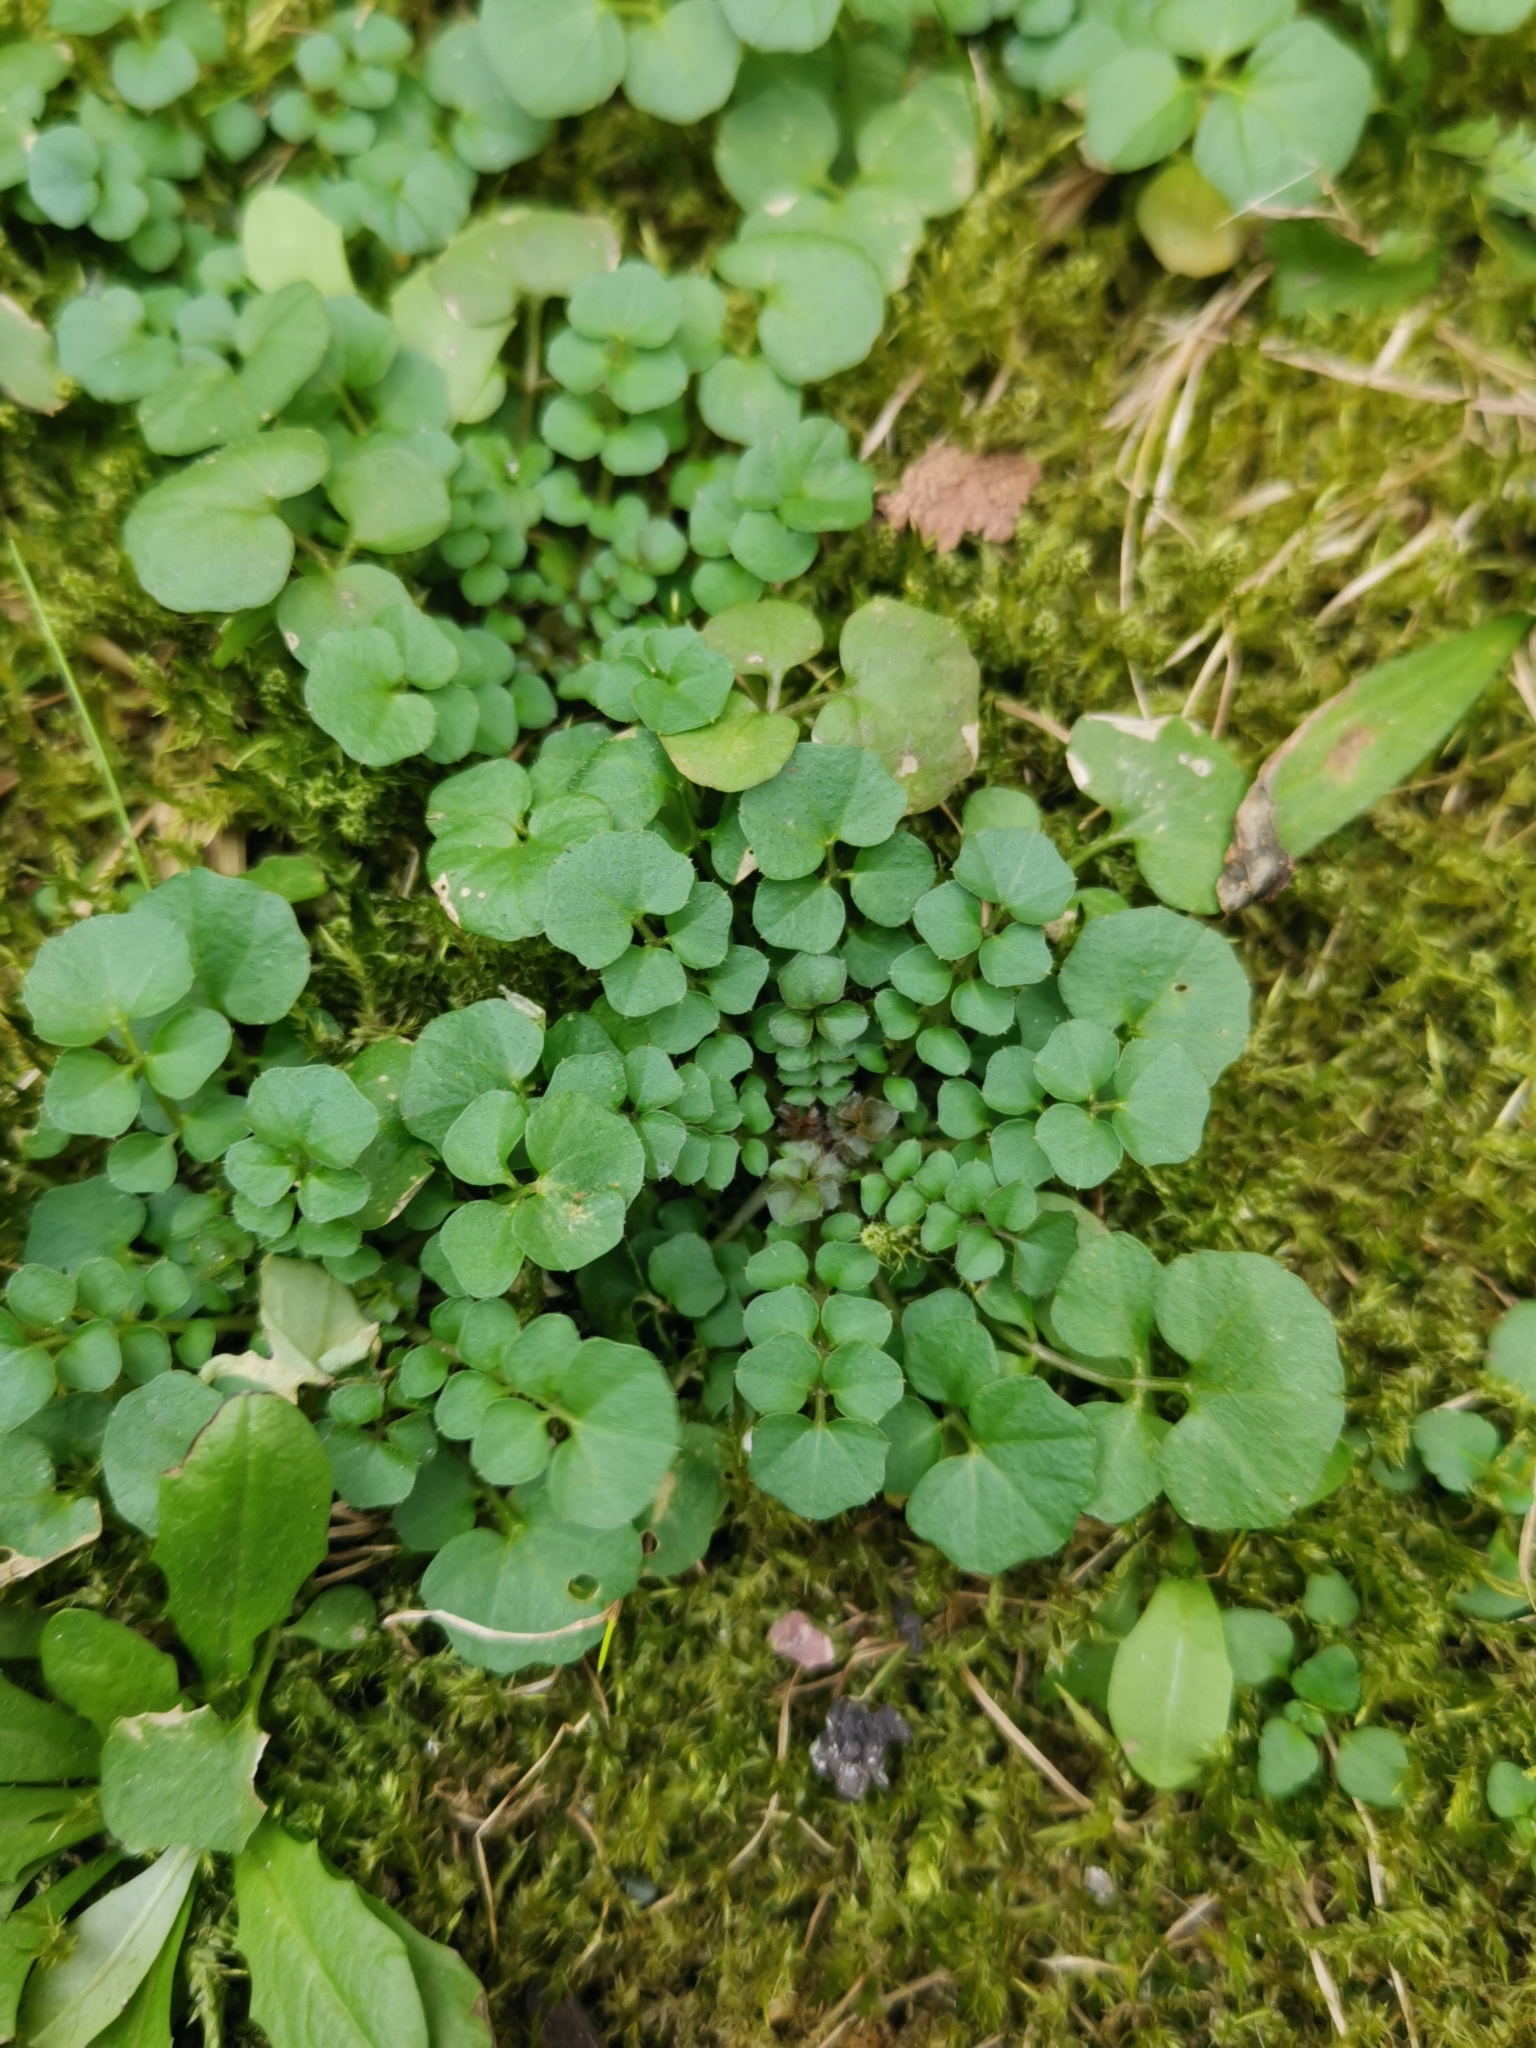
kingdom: Plantae
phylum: Tracheophyta
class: Magnoliopsida
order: Brassicales
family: Brassicaceae
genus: Cardamine
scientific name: Cardamine hirsuta
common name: Hairy bittercress
